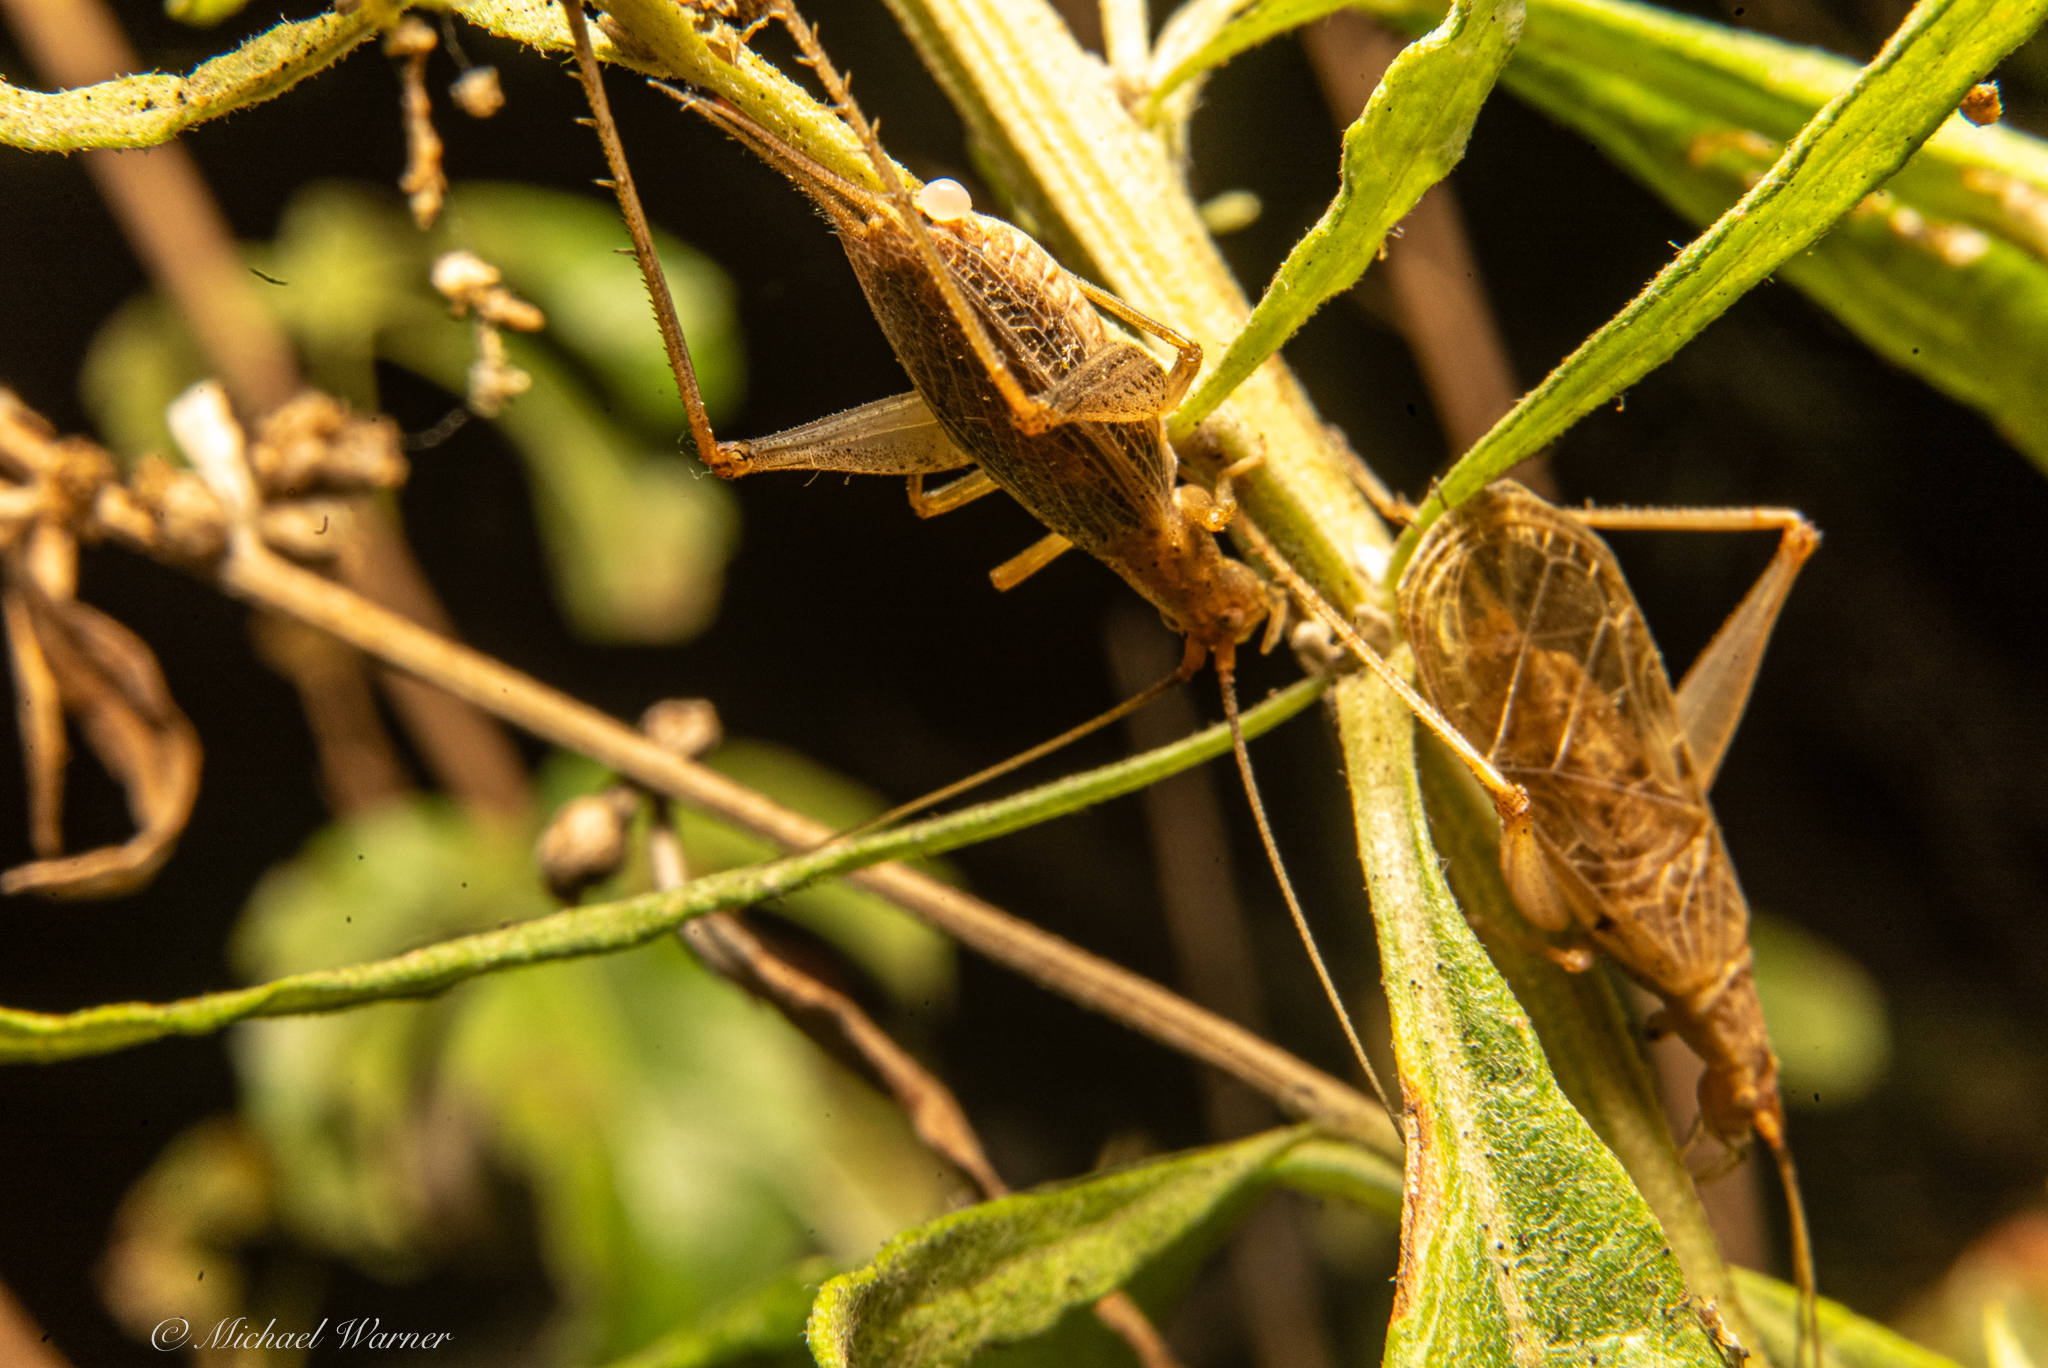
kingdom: Animalia
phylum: Arthropoda
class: Insecta
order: Orthoptera
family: Gryllidae
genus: Oecanthus
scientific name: Oecanthus californicus
